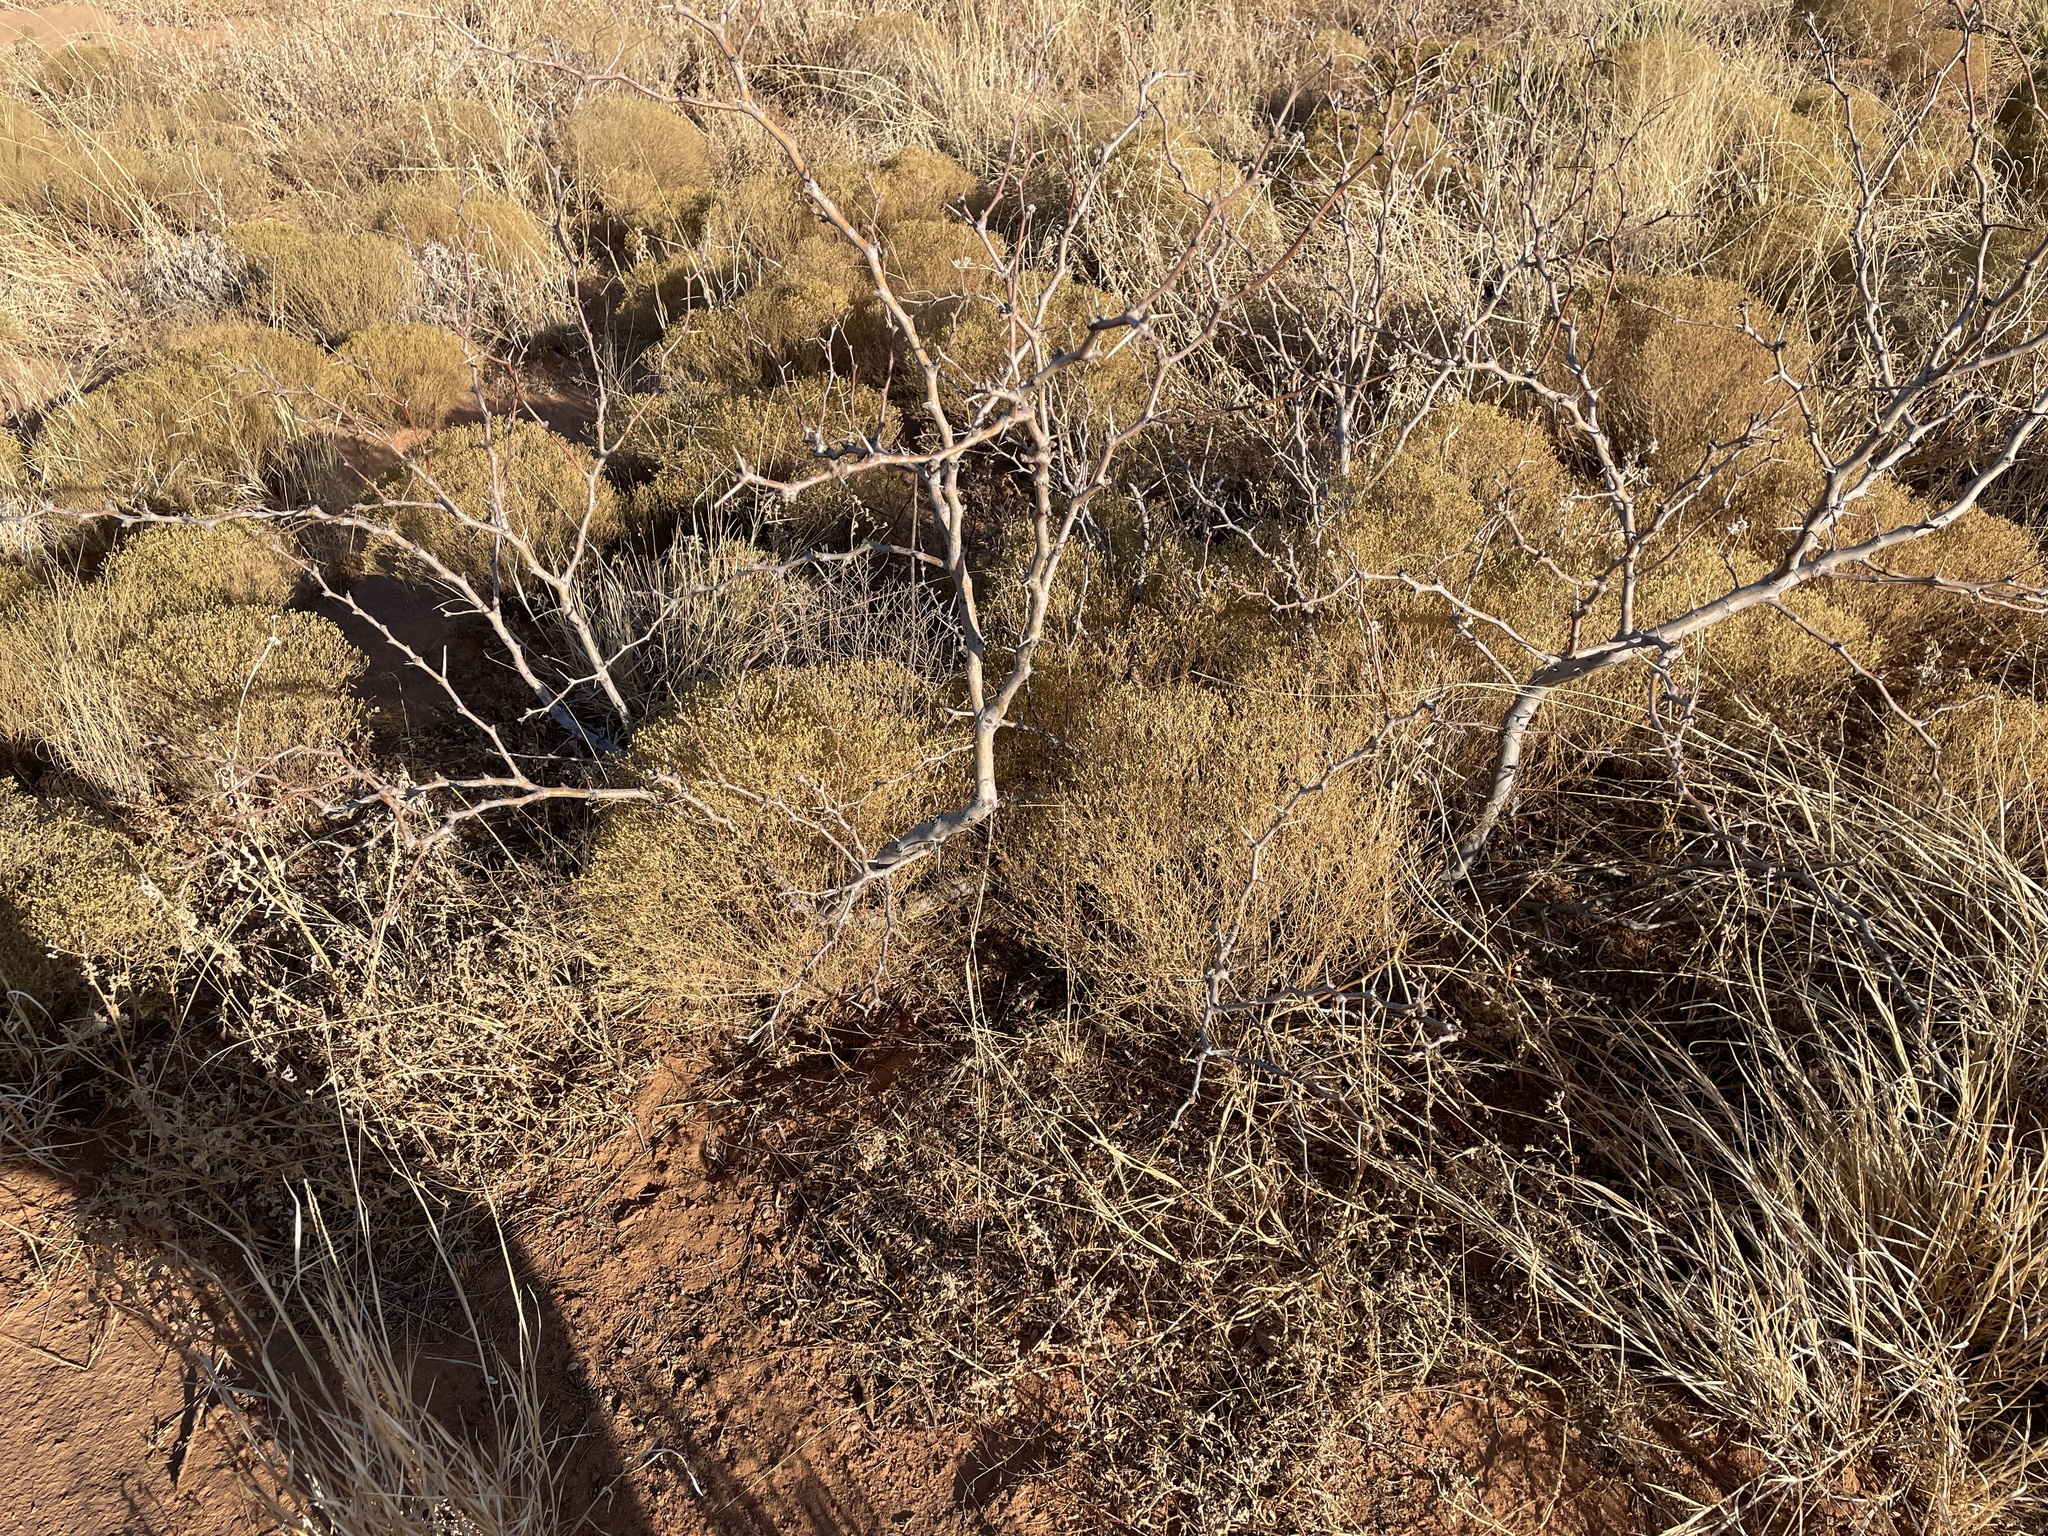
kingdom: Plantae
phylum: Tracheophyta
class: Magnoliopsida
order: Fabales
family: Fabaceae
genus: Prosopis
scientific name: Prosopis glandulosa
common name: Honey mesquite
